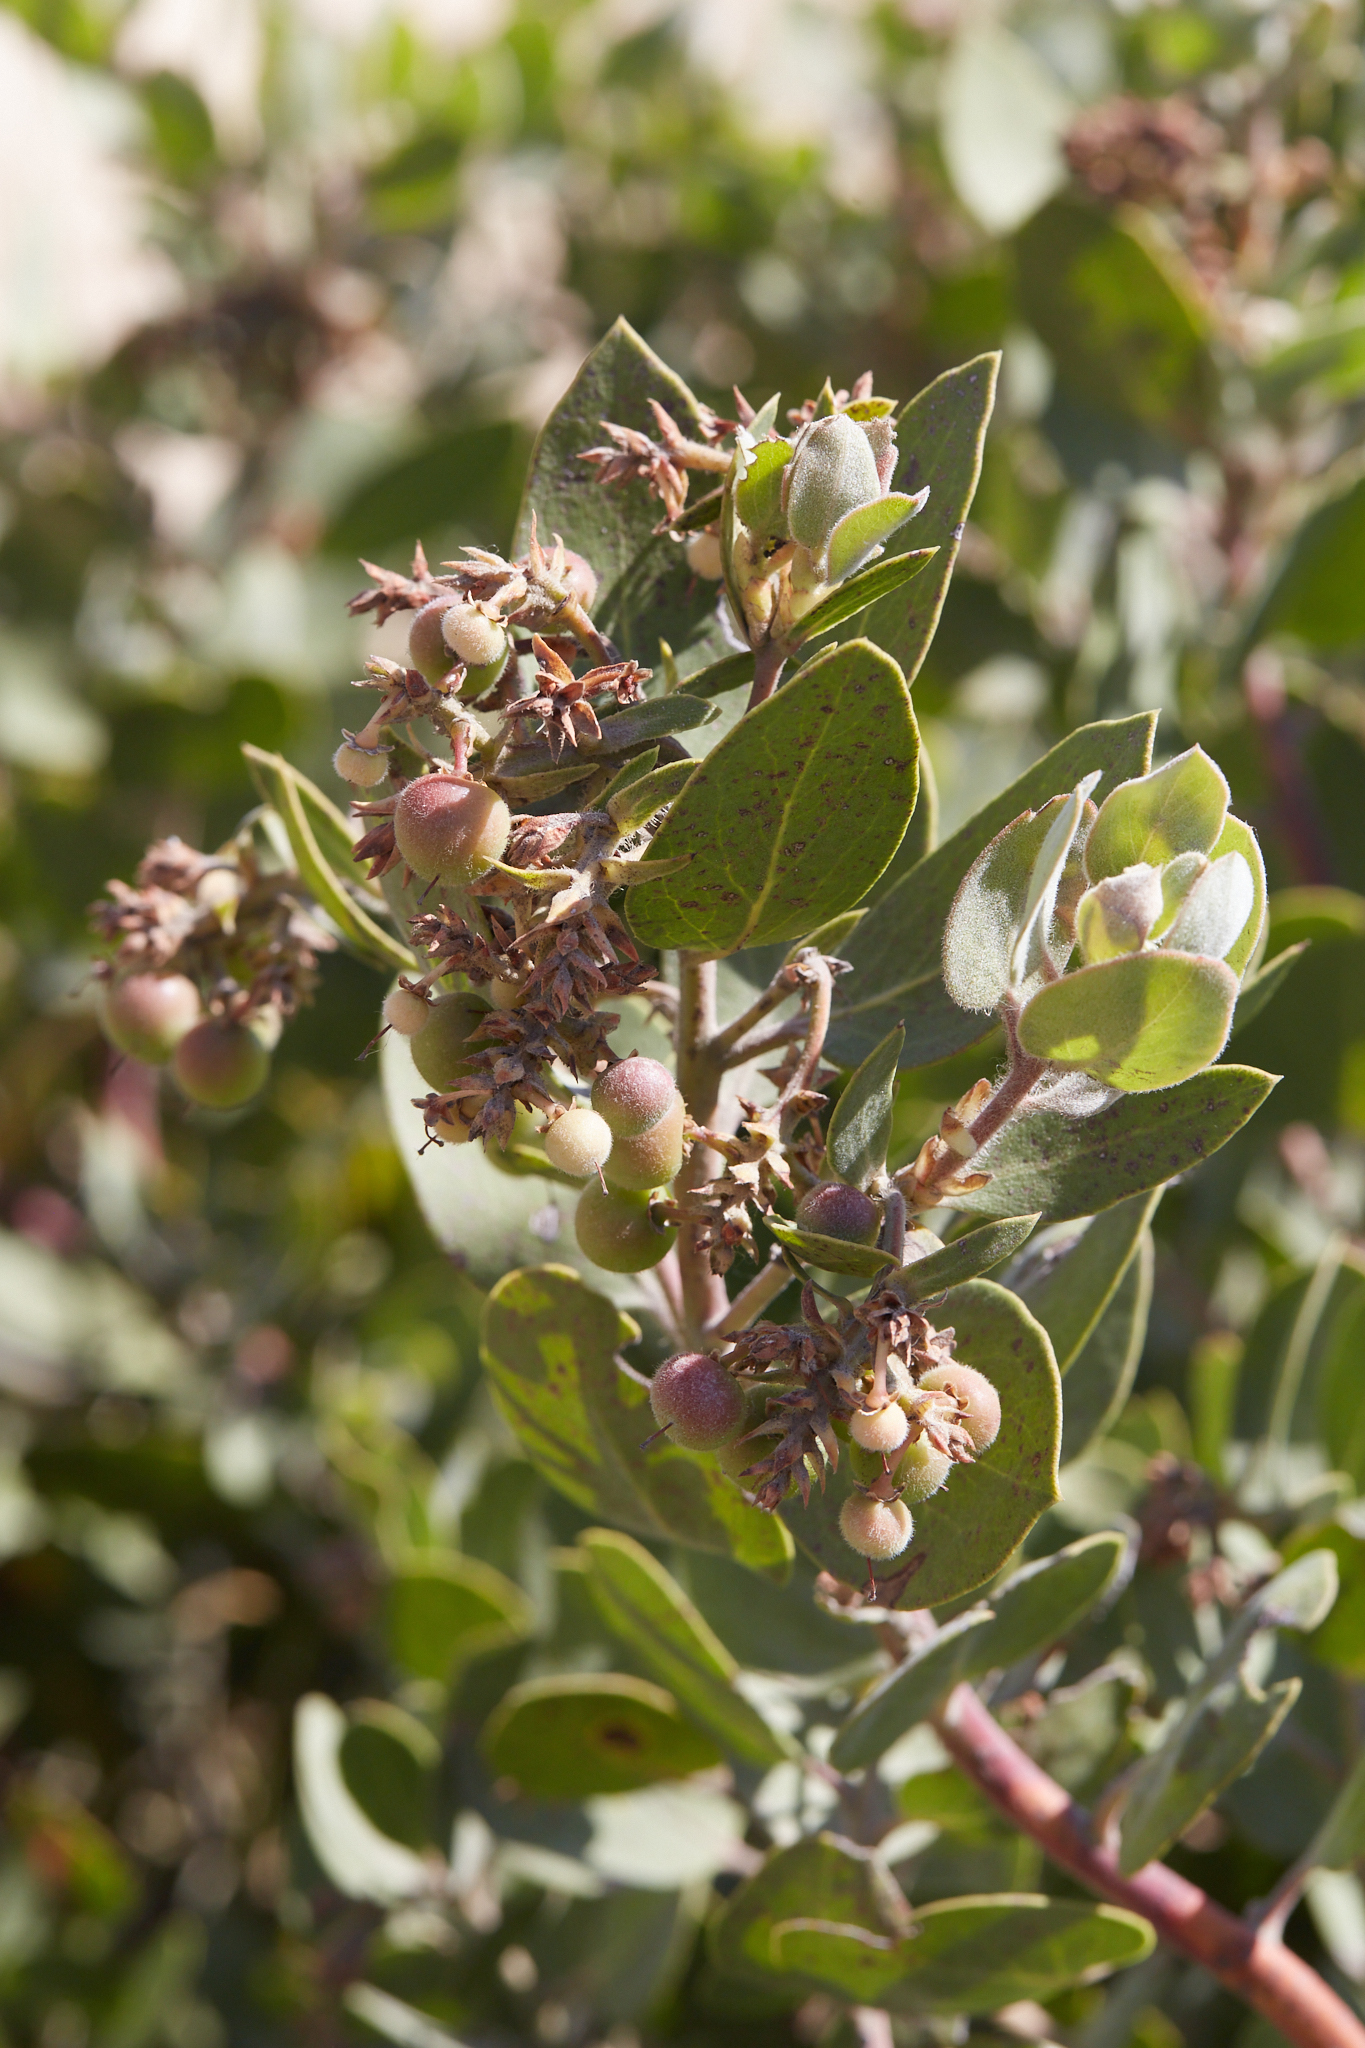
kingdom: Plantae
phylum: Tracheophyta
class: Magnoliopsida
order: Ericales
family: Ericaceae
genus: Arctostaphylos
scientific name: Arctostaphylos glandulosa
